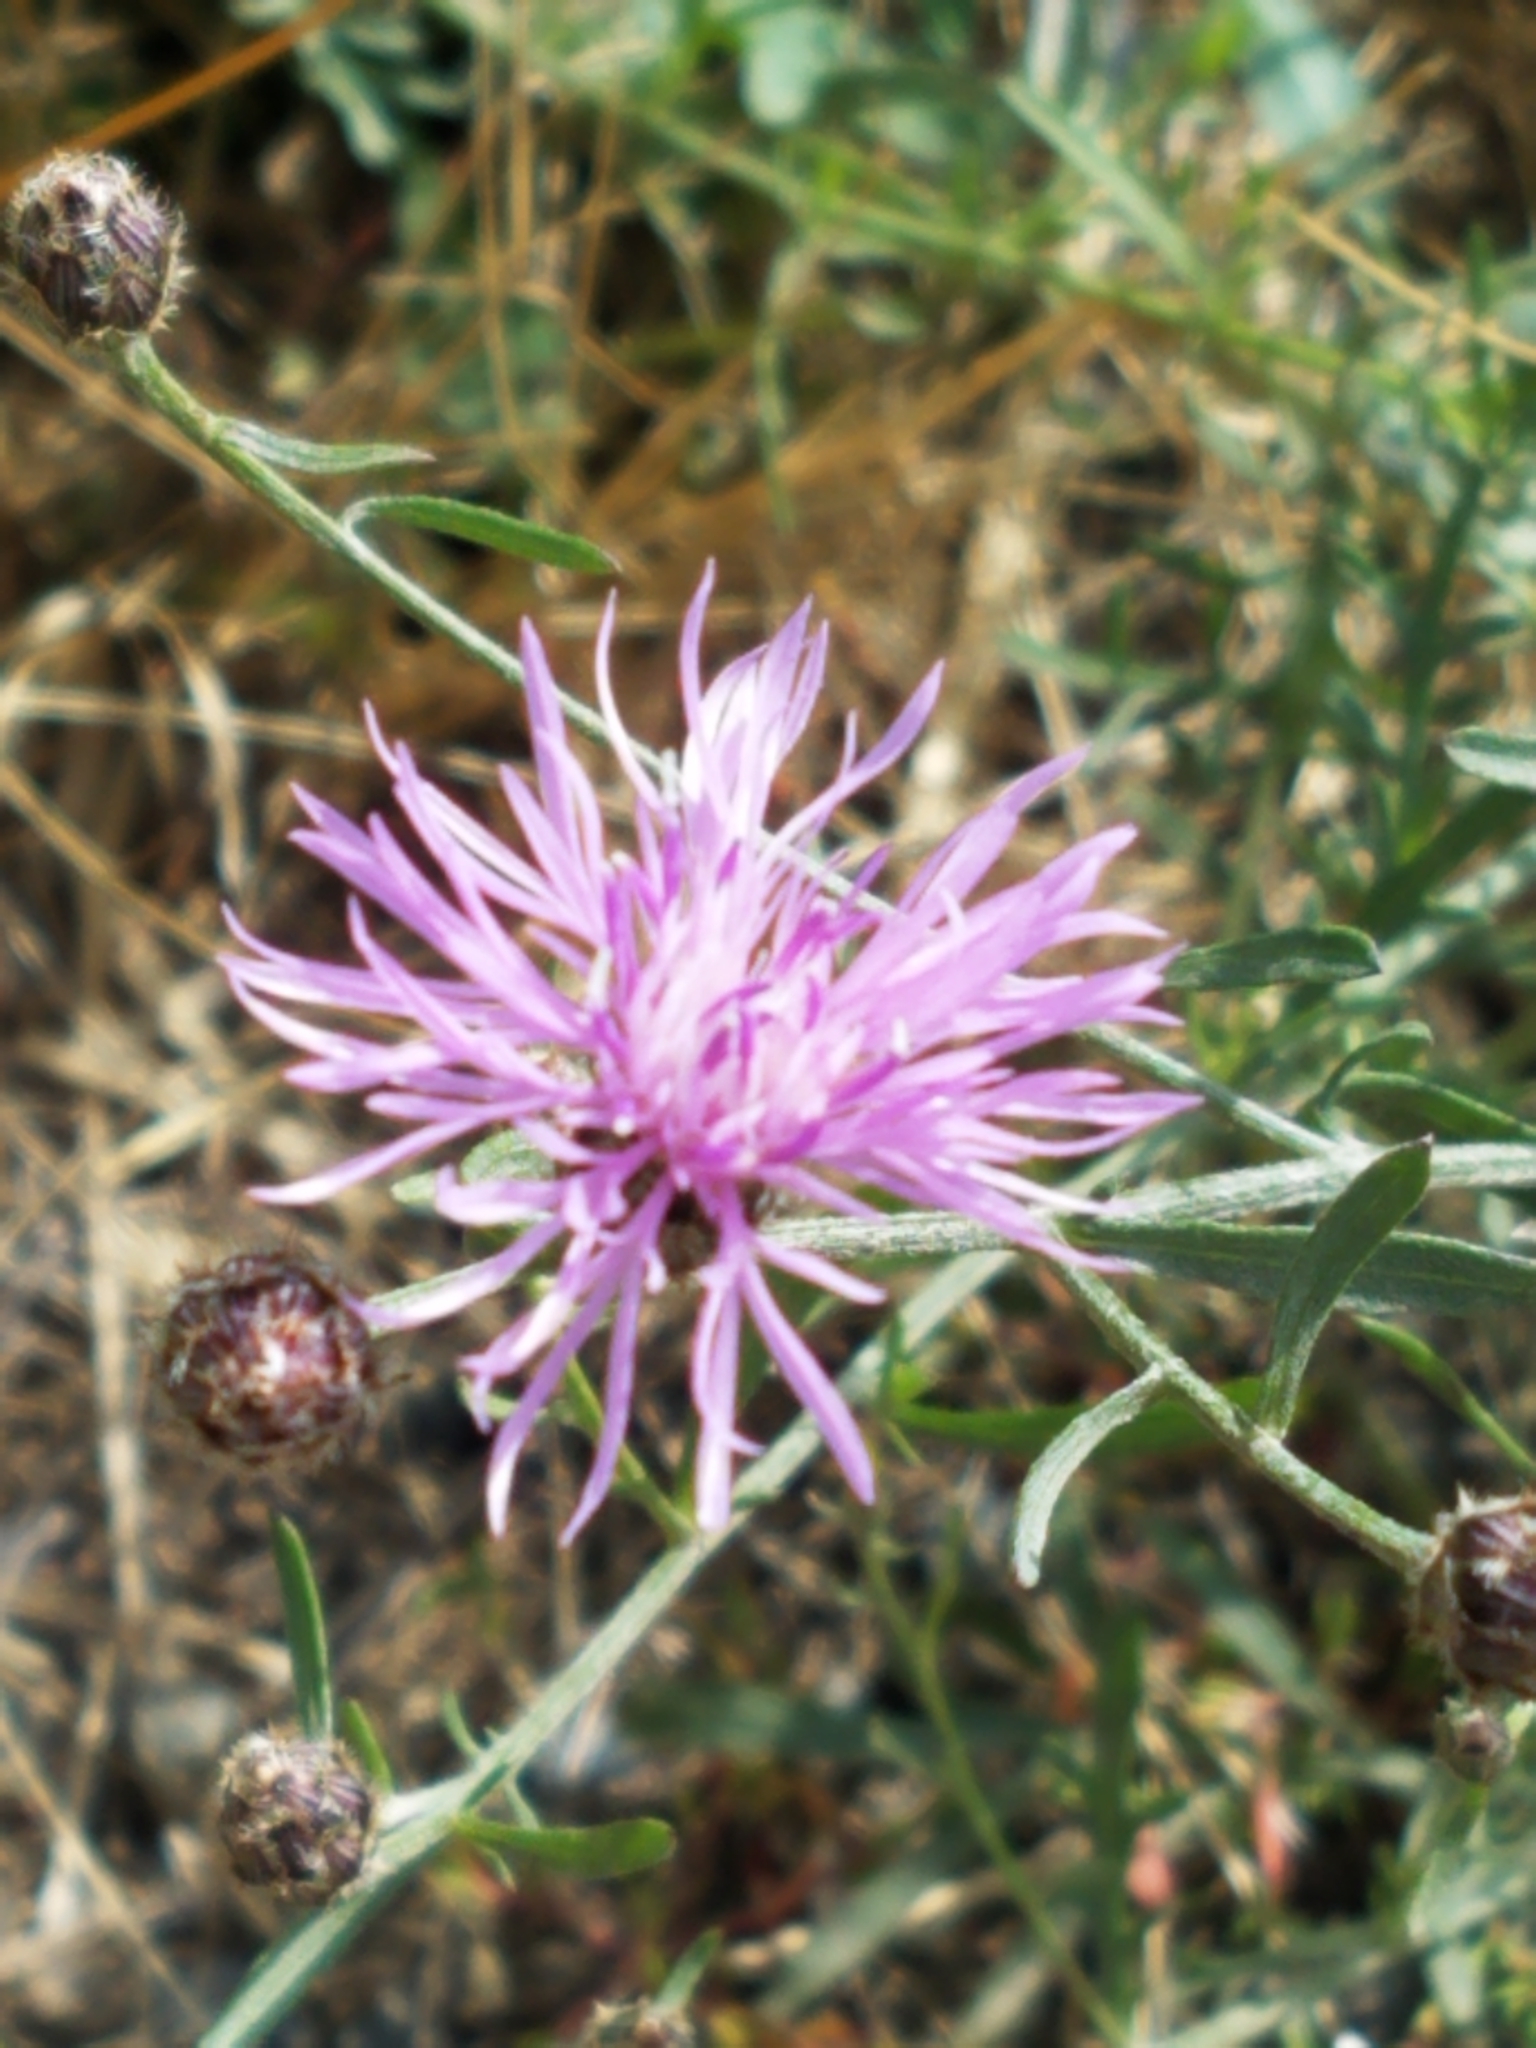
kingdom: Plantae
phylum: Tracheophyta
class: Magnoliopsida
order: Asterales
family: Asteraceae
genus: Centaurea
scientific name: Centaurea stoebe
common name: Spotted knapweed
